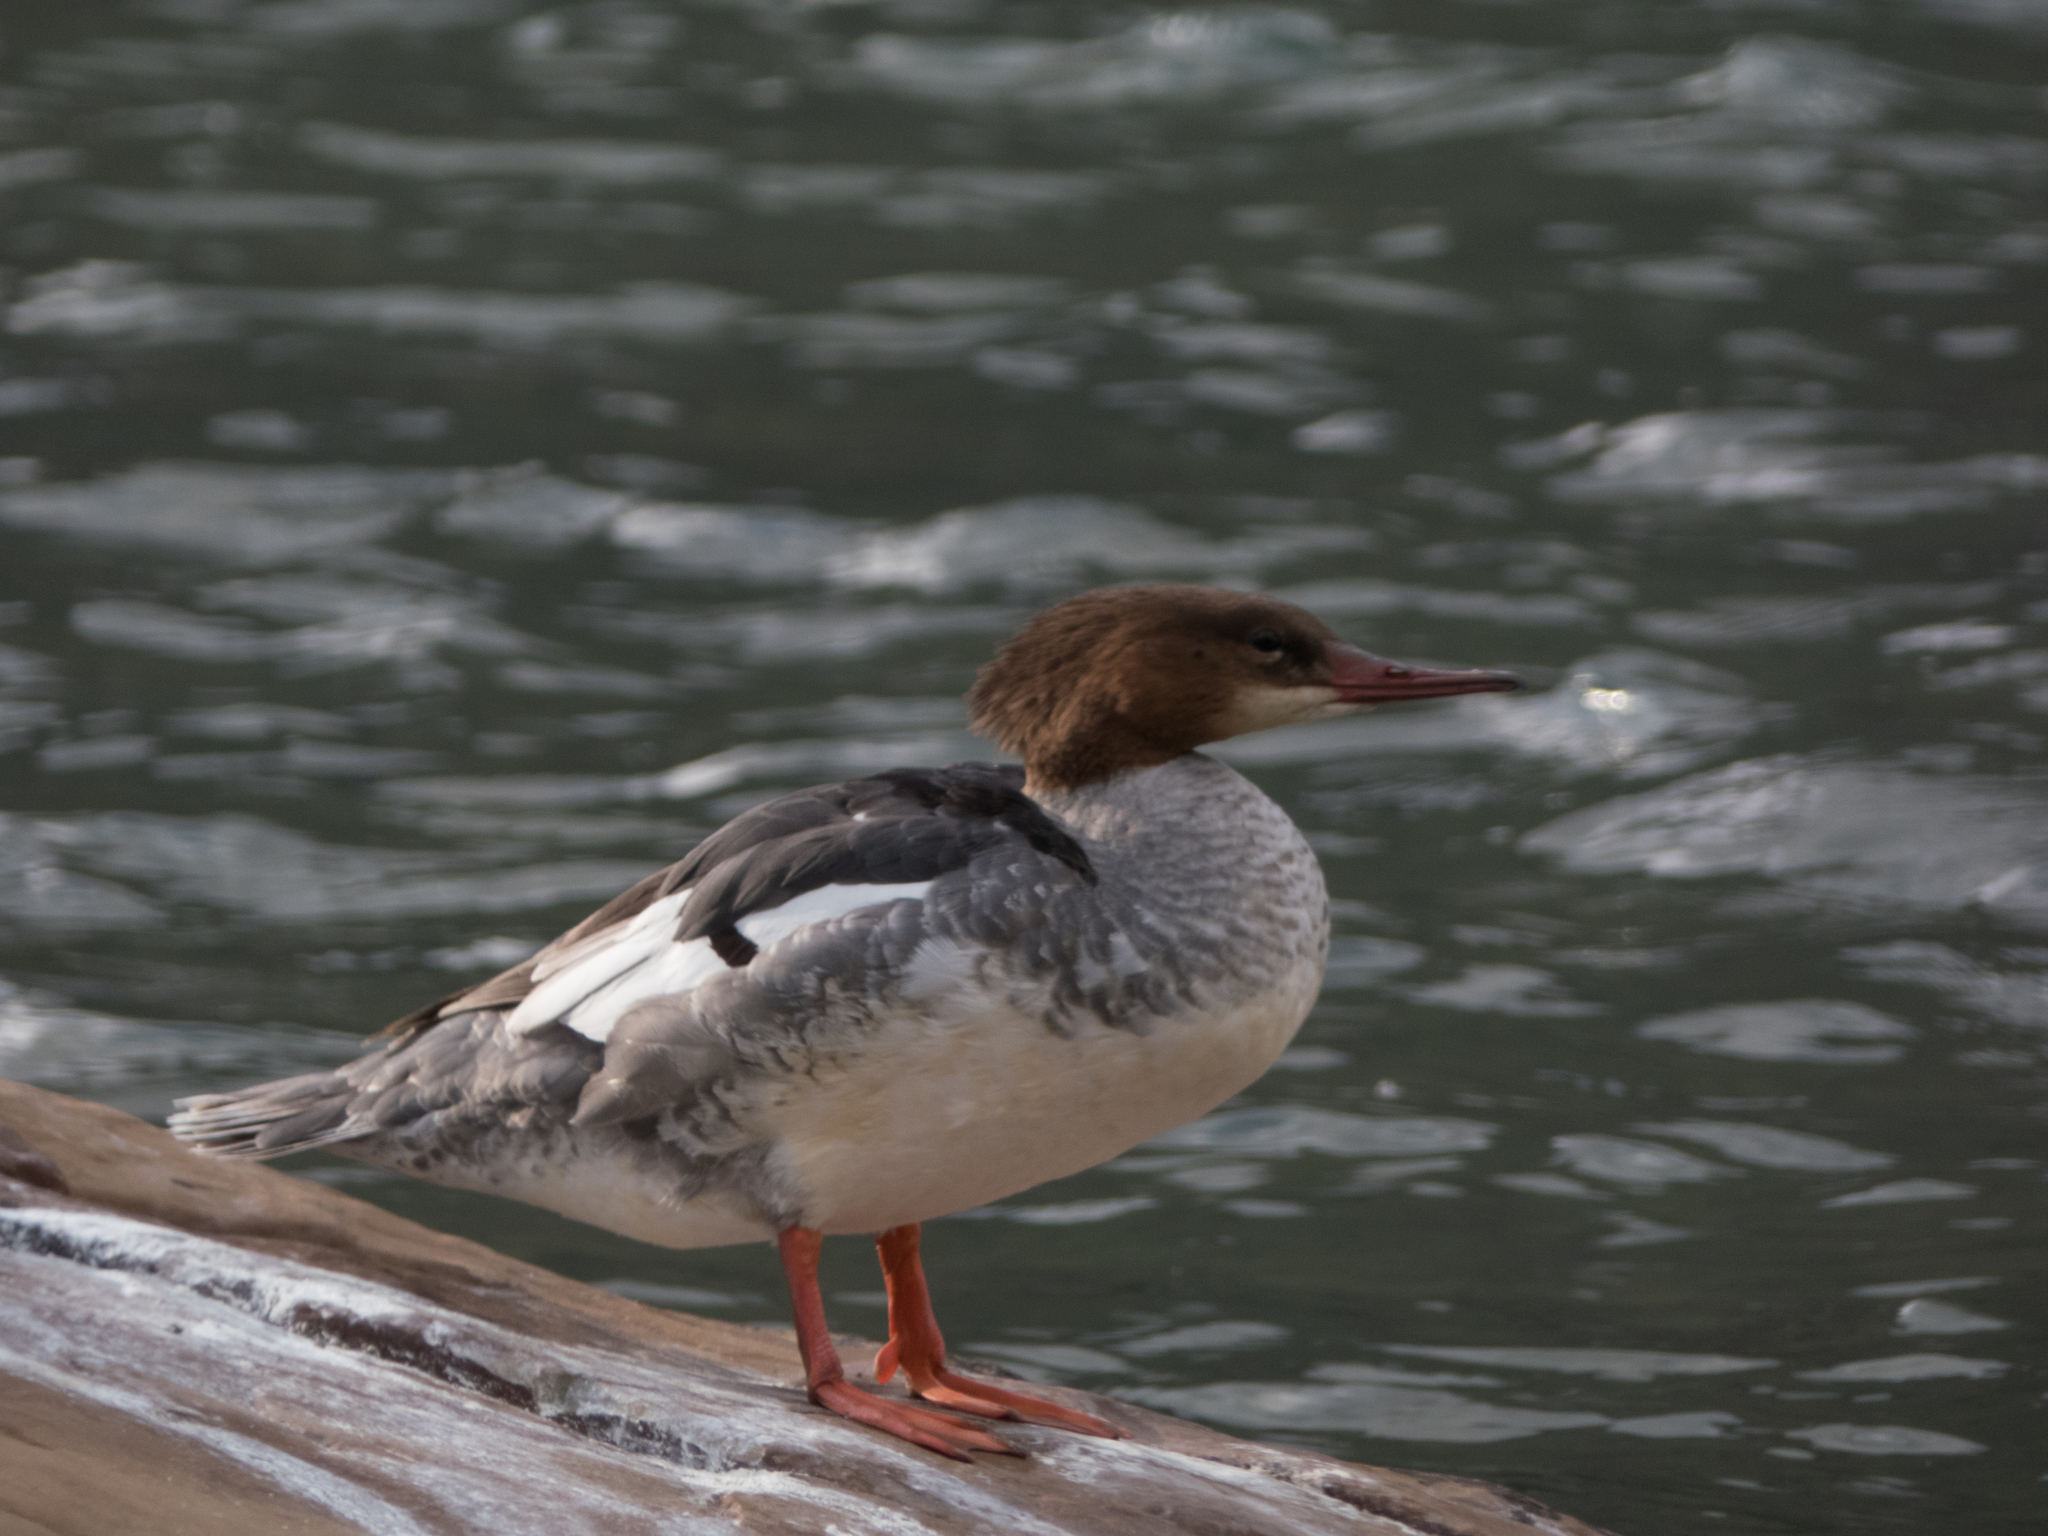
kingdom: Animalia
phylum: Chordata
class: Aves
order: Anseriformes
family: Anatidae
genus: Mergus
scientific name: Mergus merganser
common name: Common merganser
